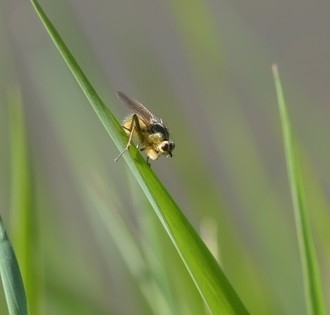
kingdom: Animalia
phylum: Arthropoda
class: Insecta
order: Diptera
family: Scathophagidae
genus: Scathophaga
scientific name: Scathophaga stercoraria
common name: Yellow dung fly
